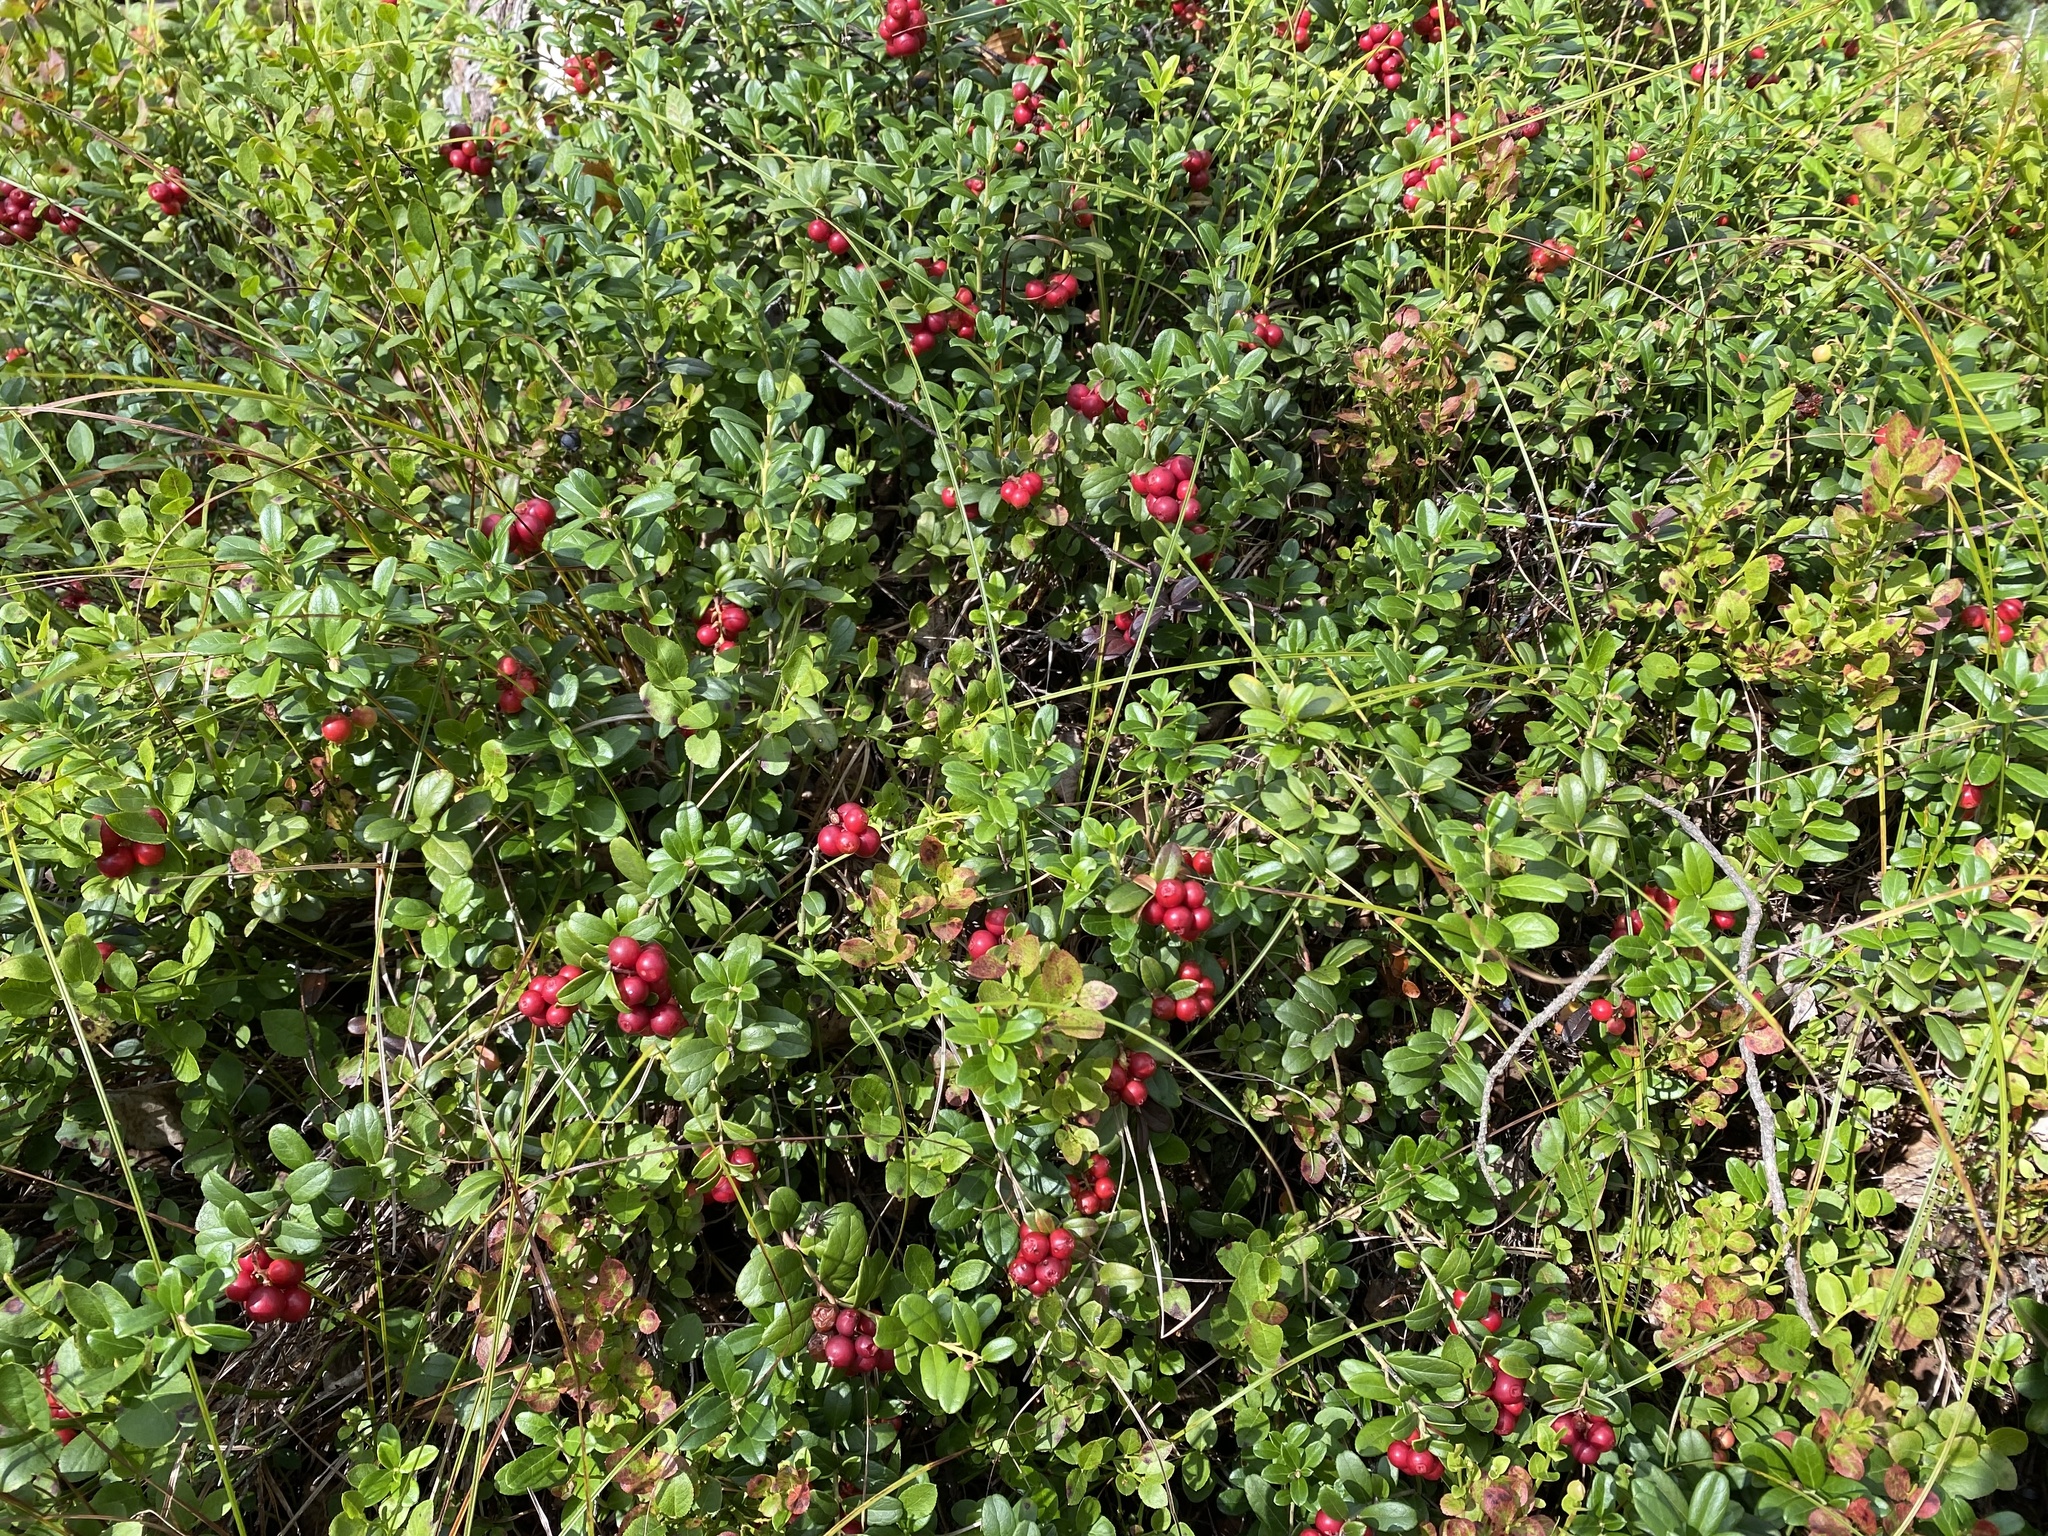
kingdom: Plantae
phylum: Tracheophyta
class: Magnoliopsida
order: Ericales
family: Ericaceae
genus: Vaccinium
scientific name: Vaccinium vitis-idaea
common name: Cowberry
